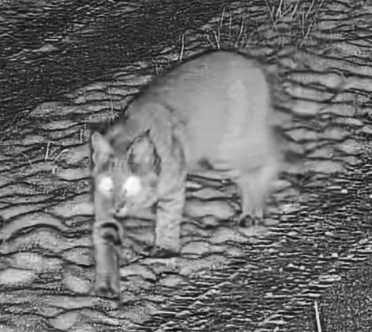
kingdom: Animalia
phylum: Chordata
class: Mammalia
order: Carnivora
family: Felidae
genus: Lynx
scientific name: Lynx rufus
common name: Bobcat
